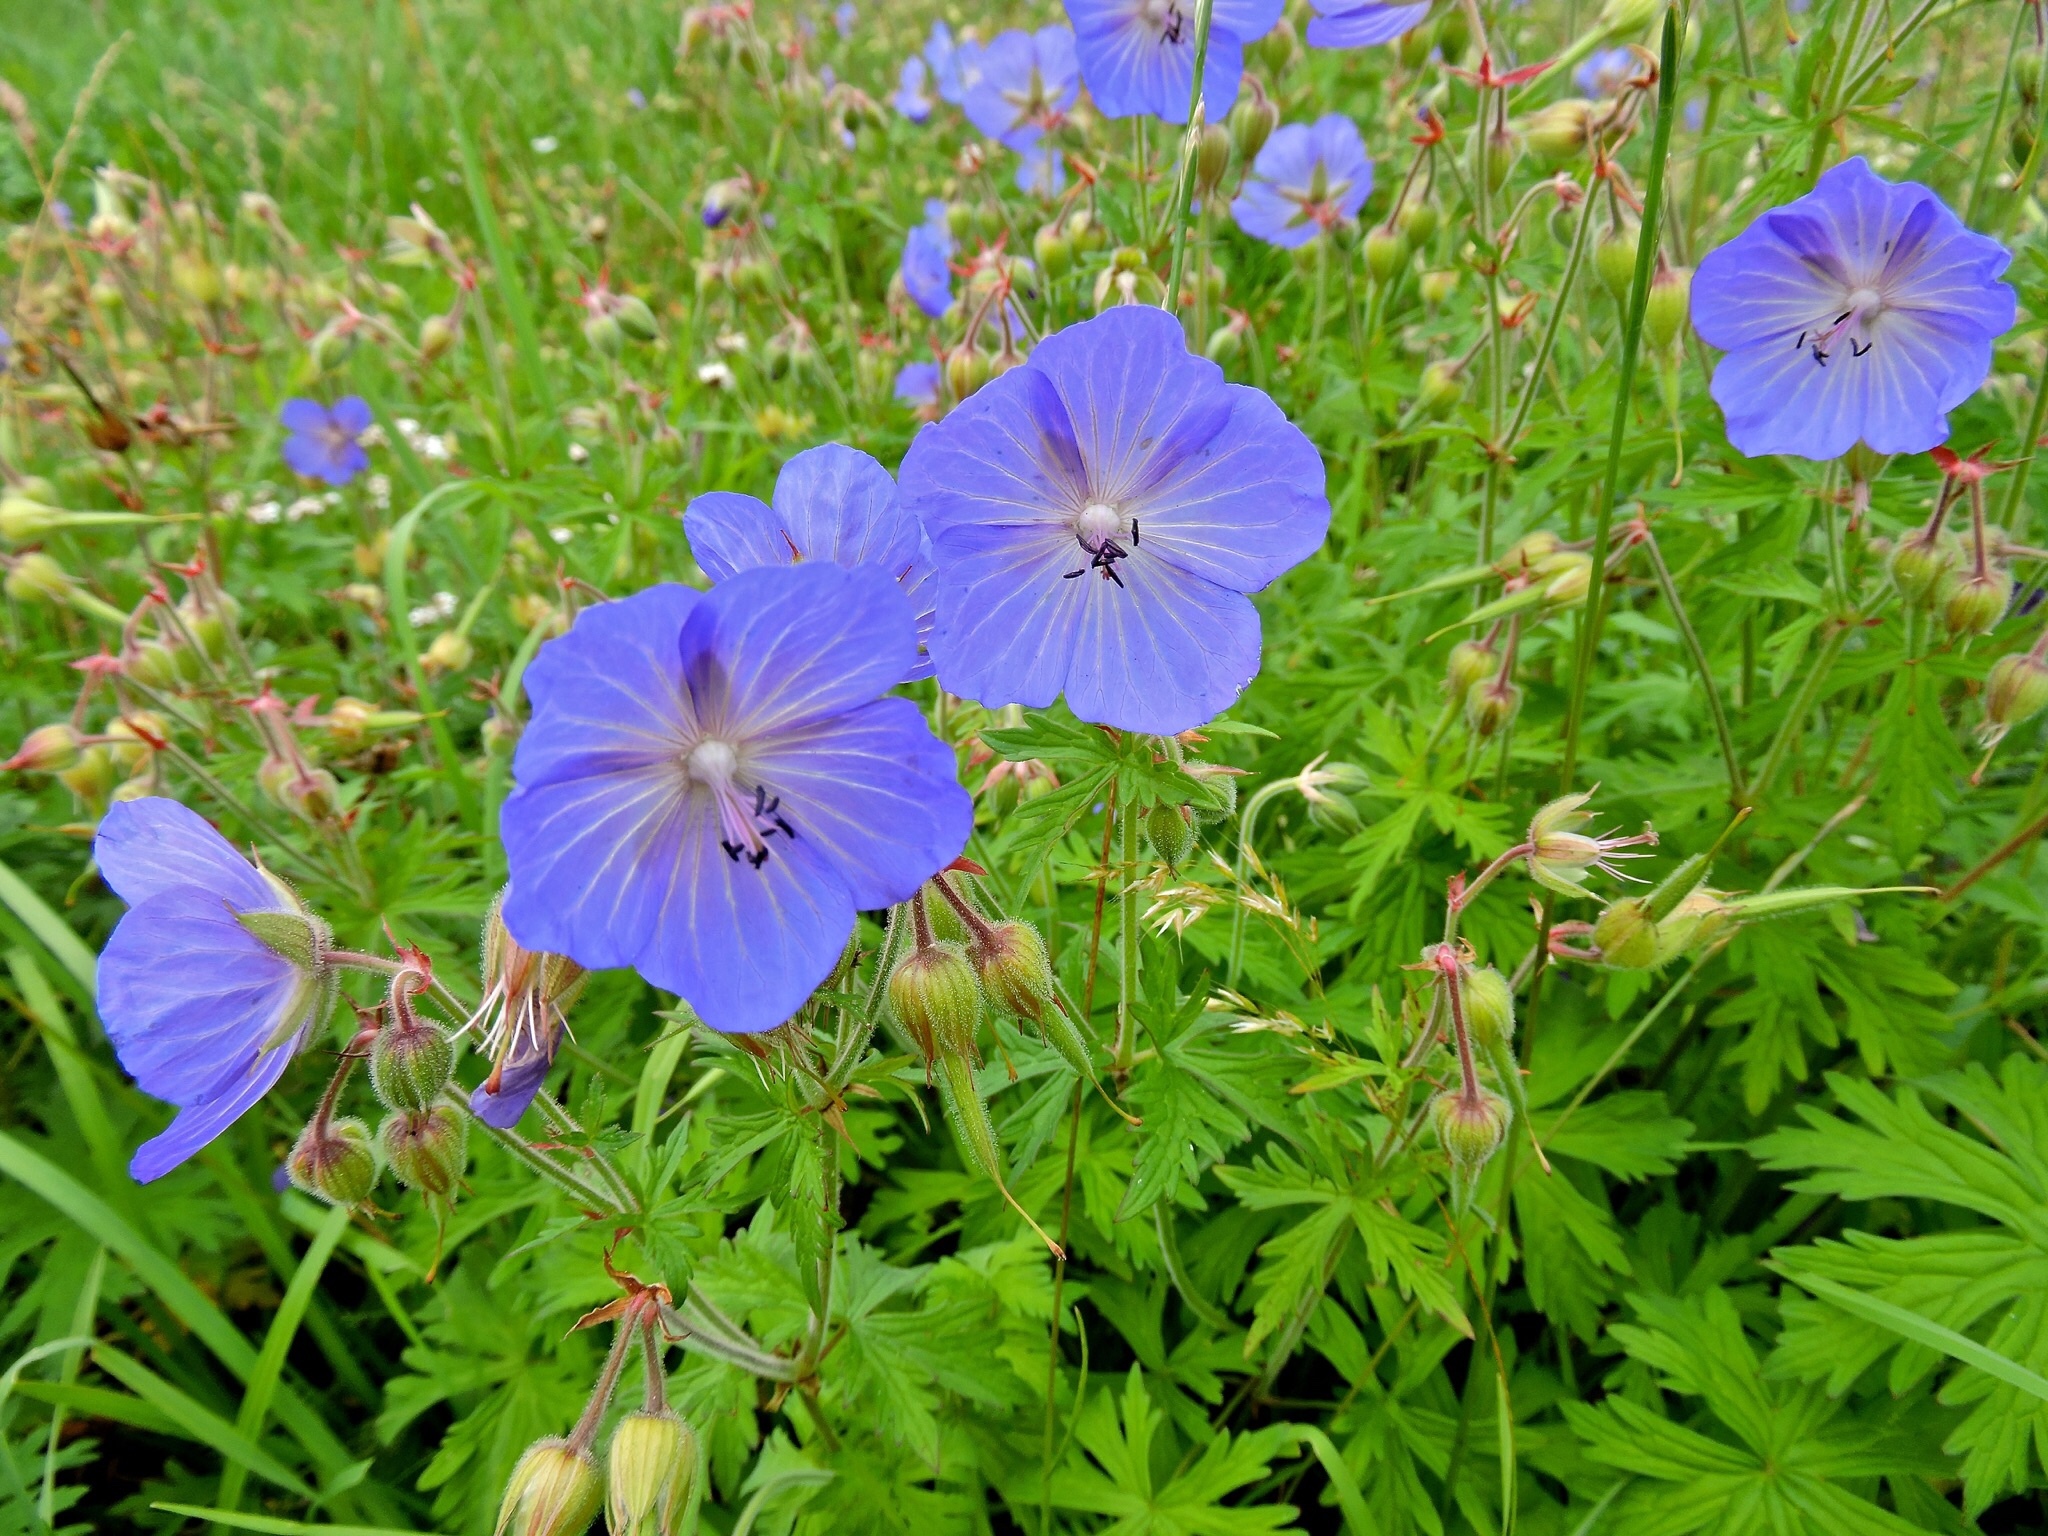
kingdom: Plantae
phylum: Tracheophyta
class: Magnoliopsida
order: Geraniales
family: Geraniaceae
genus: Geranium
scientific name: Geranium pratense
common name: Meadow crane's-bill
